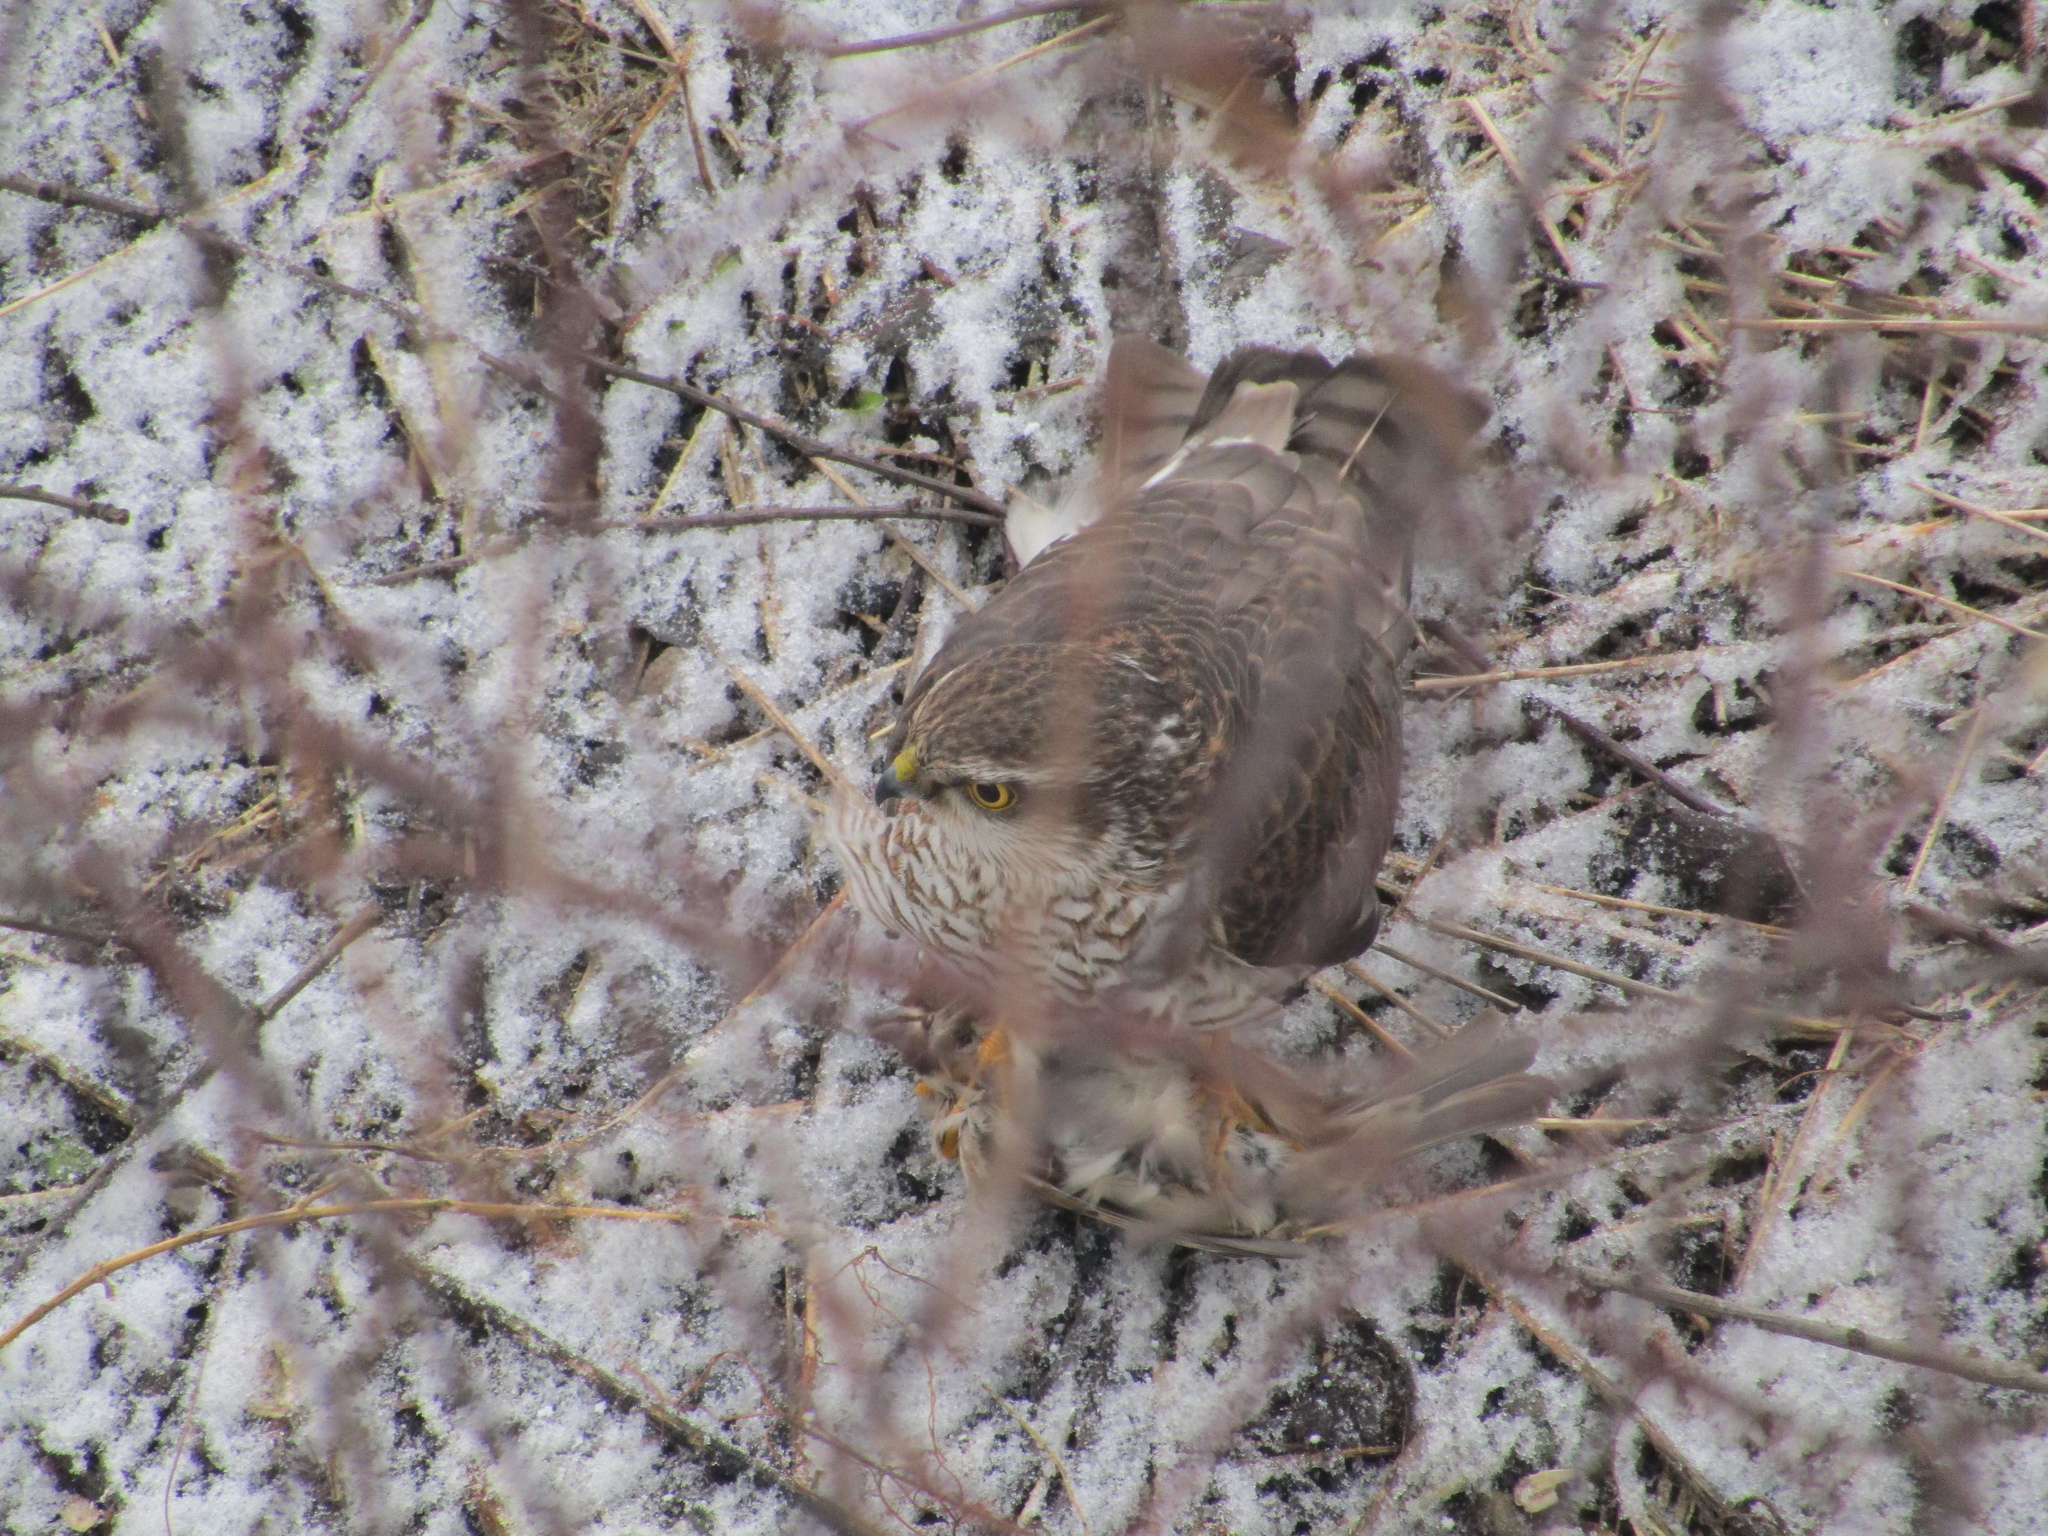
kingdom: Animalia
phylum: Chordata
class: Aves
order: Accipitriformes
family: Accipitridae
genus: Accipiter
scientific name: Accipiter nisus
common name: Eurasian sparrowhawk
